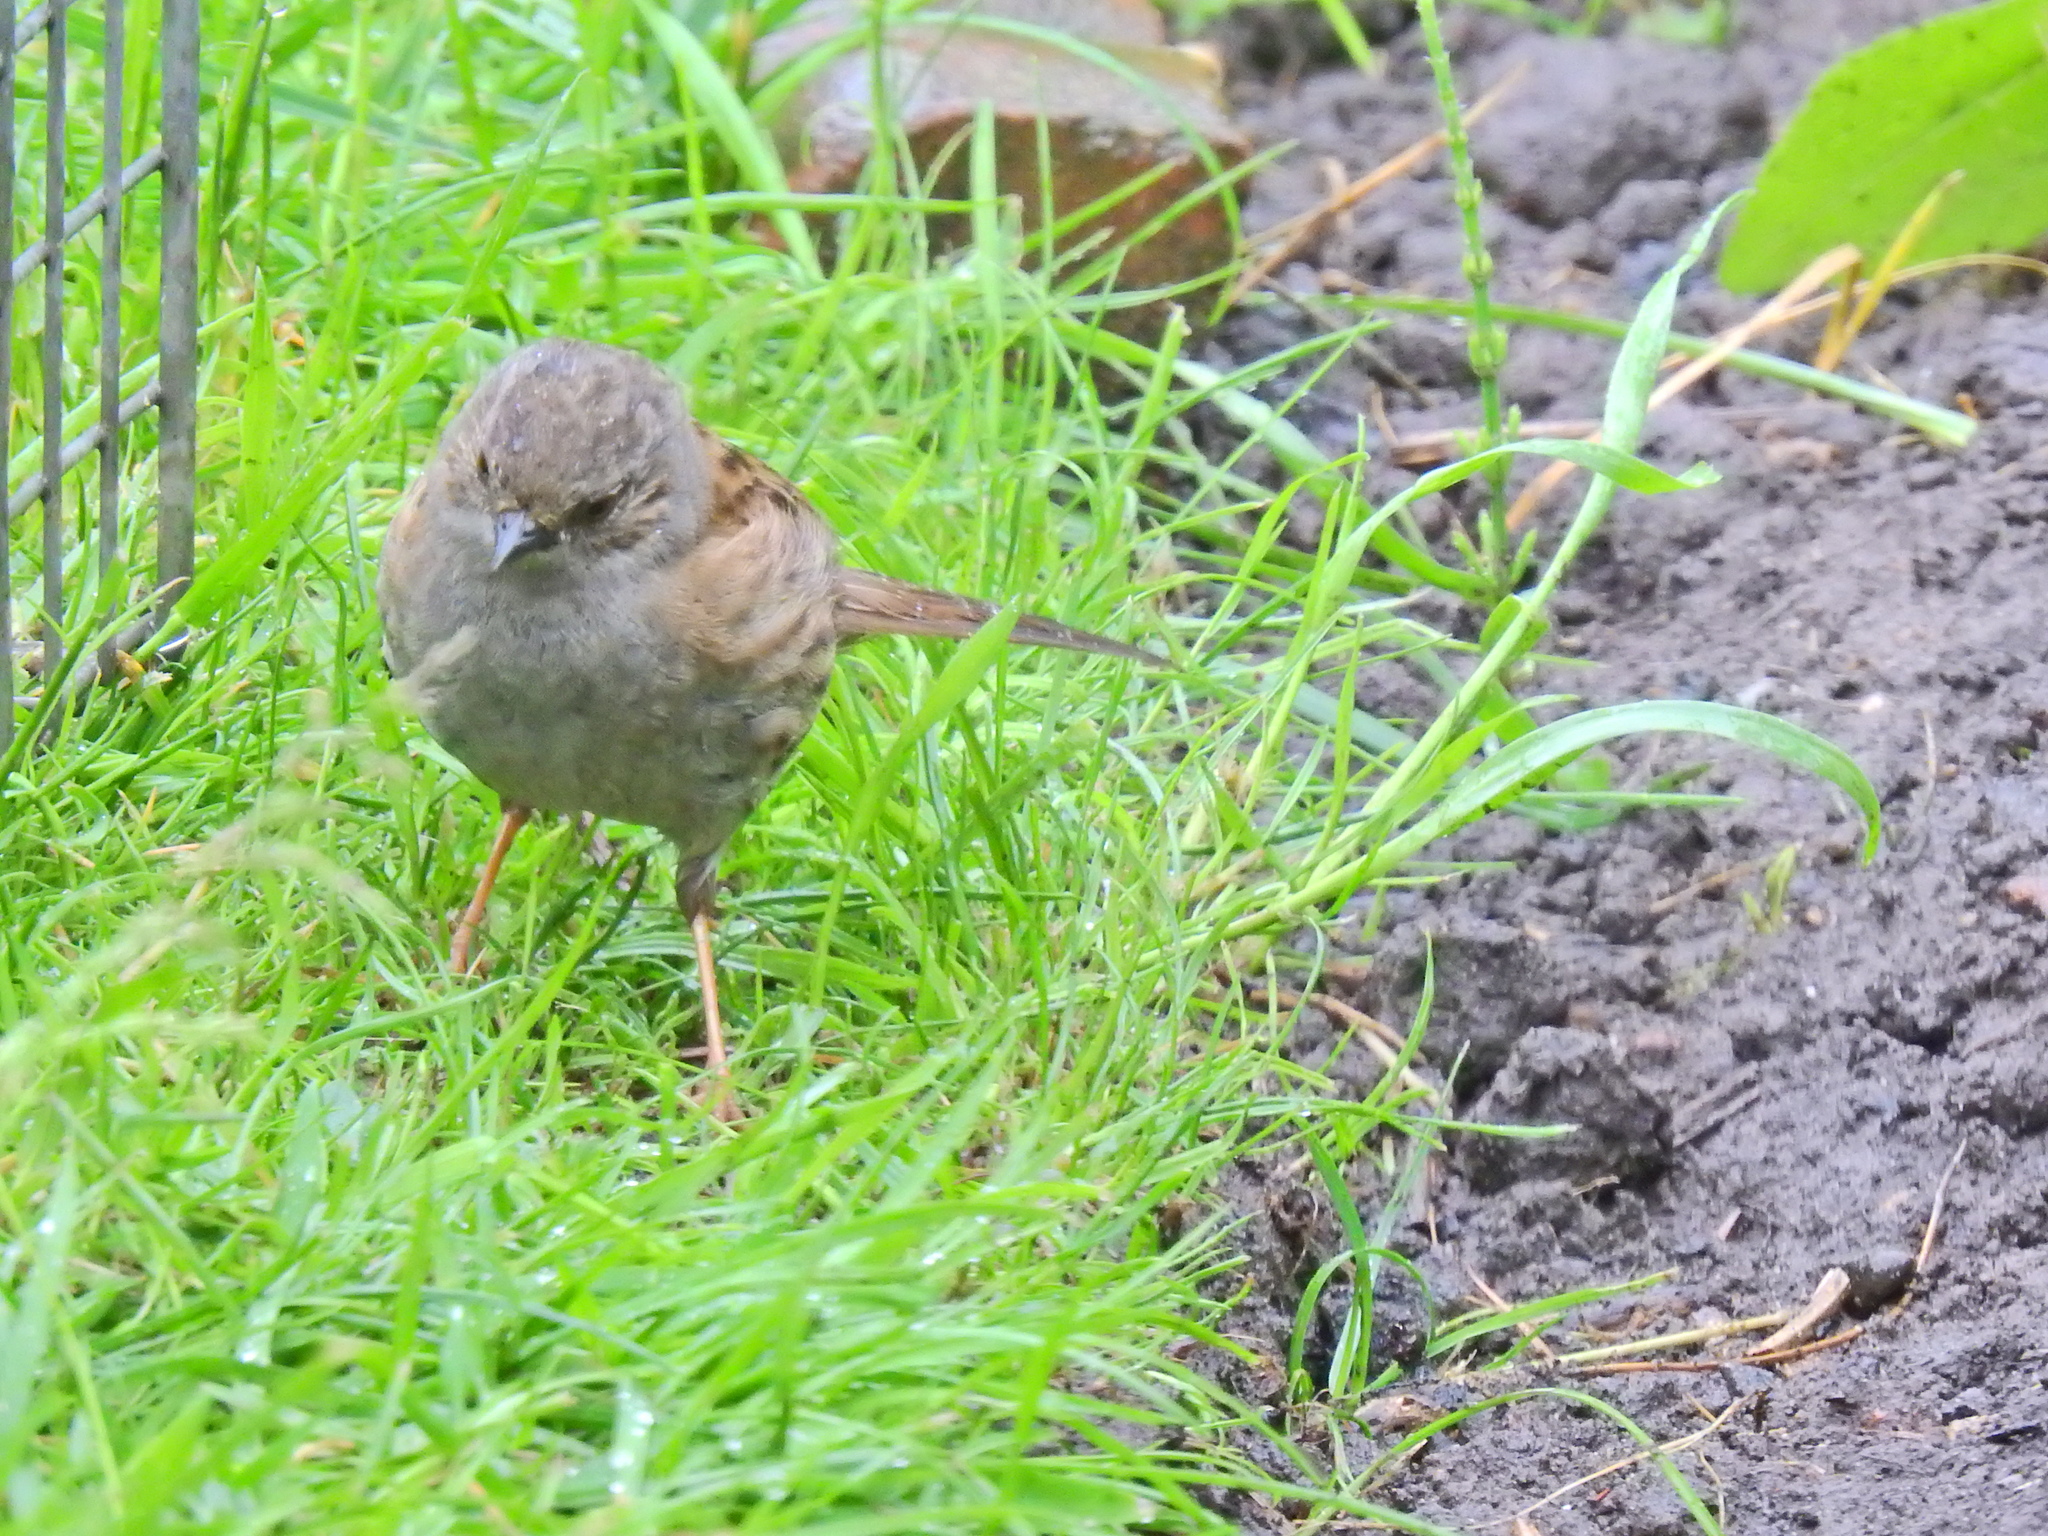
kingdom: Animalia
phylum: Chordata
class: Aves
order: Passeriformes
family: Prunellidae
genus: Prunella
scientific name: Prunella modularis
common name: Dunnock
